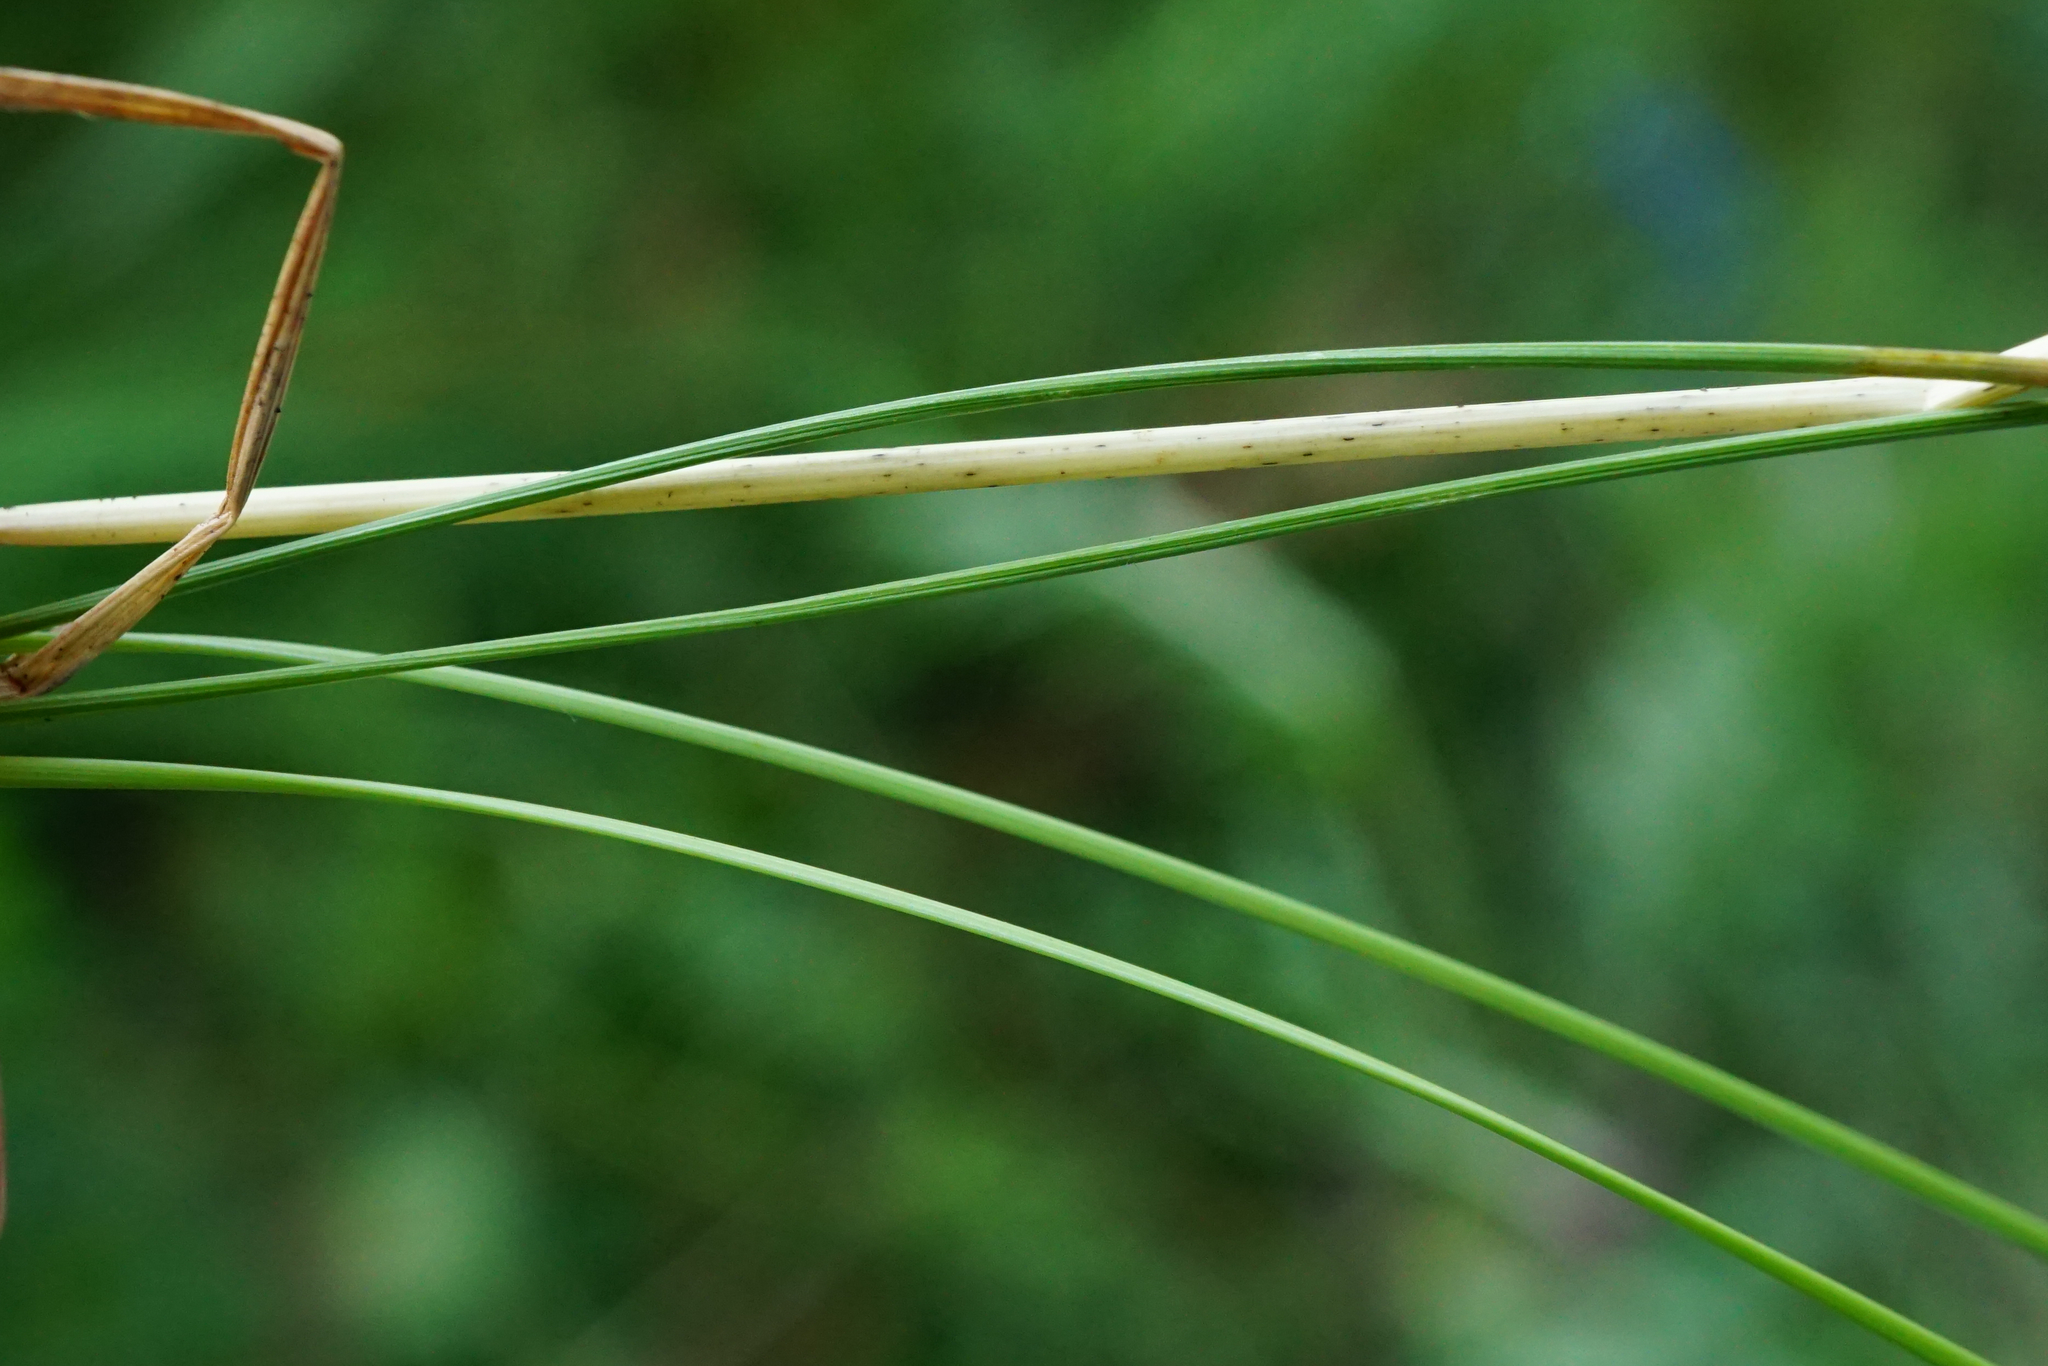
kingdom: Plantae
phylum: Tracheophyta
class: Liliopsida
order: Poales
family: Poaceae
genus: Poa
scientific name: Poa angustifolia
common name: Narrow-leaved meadow-grass
